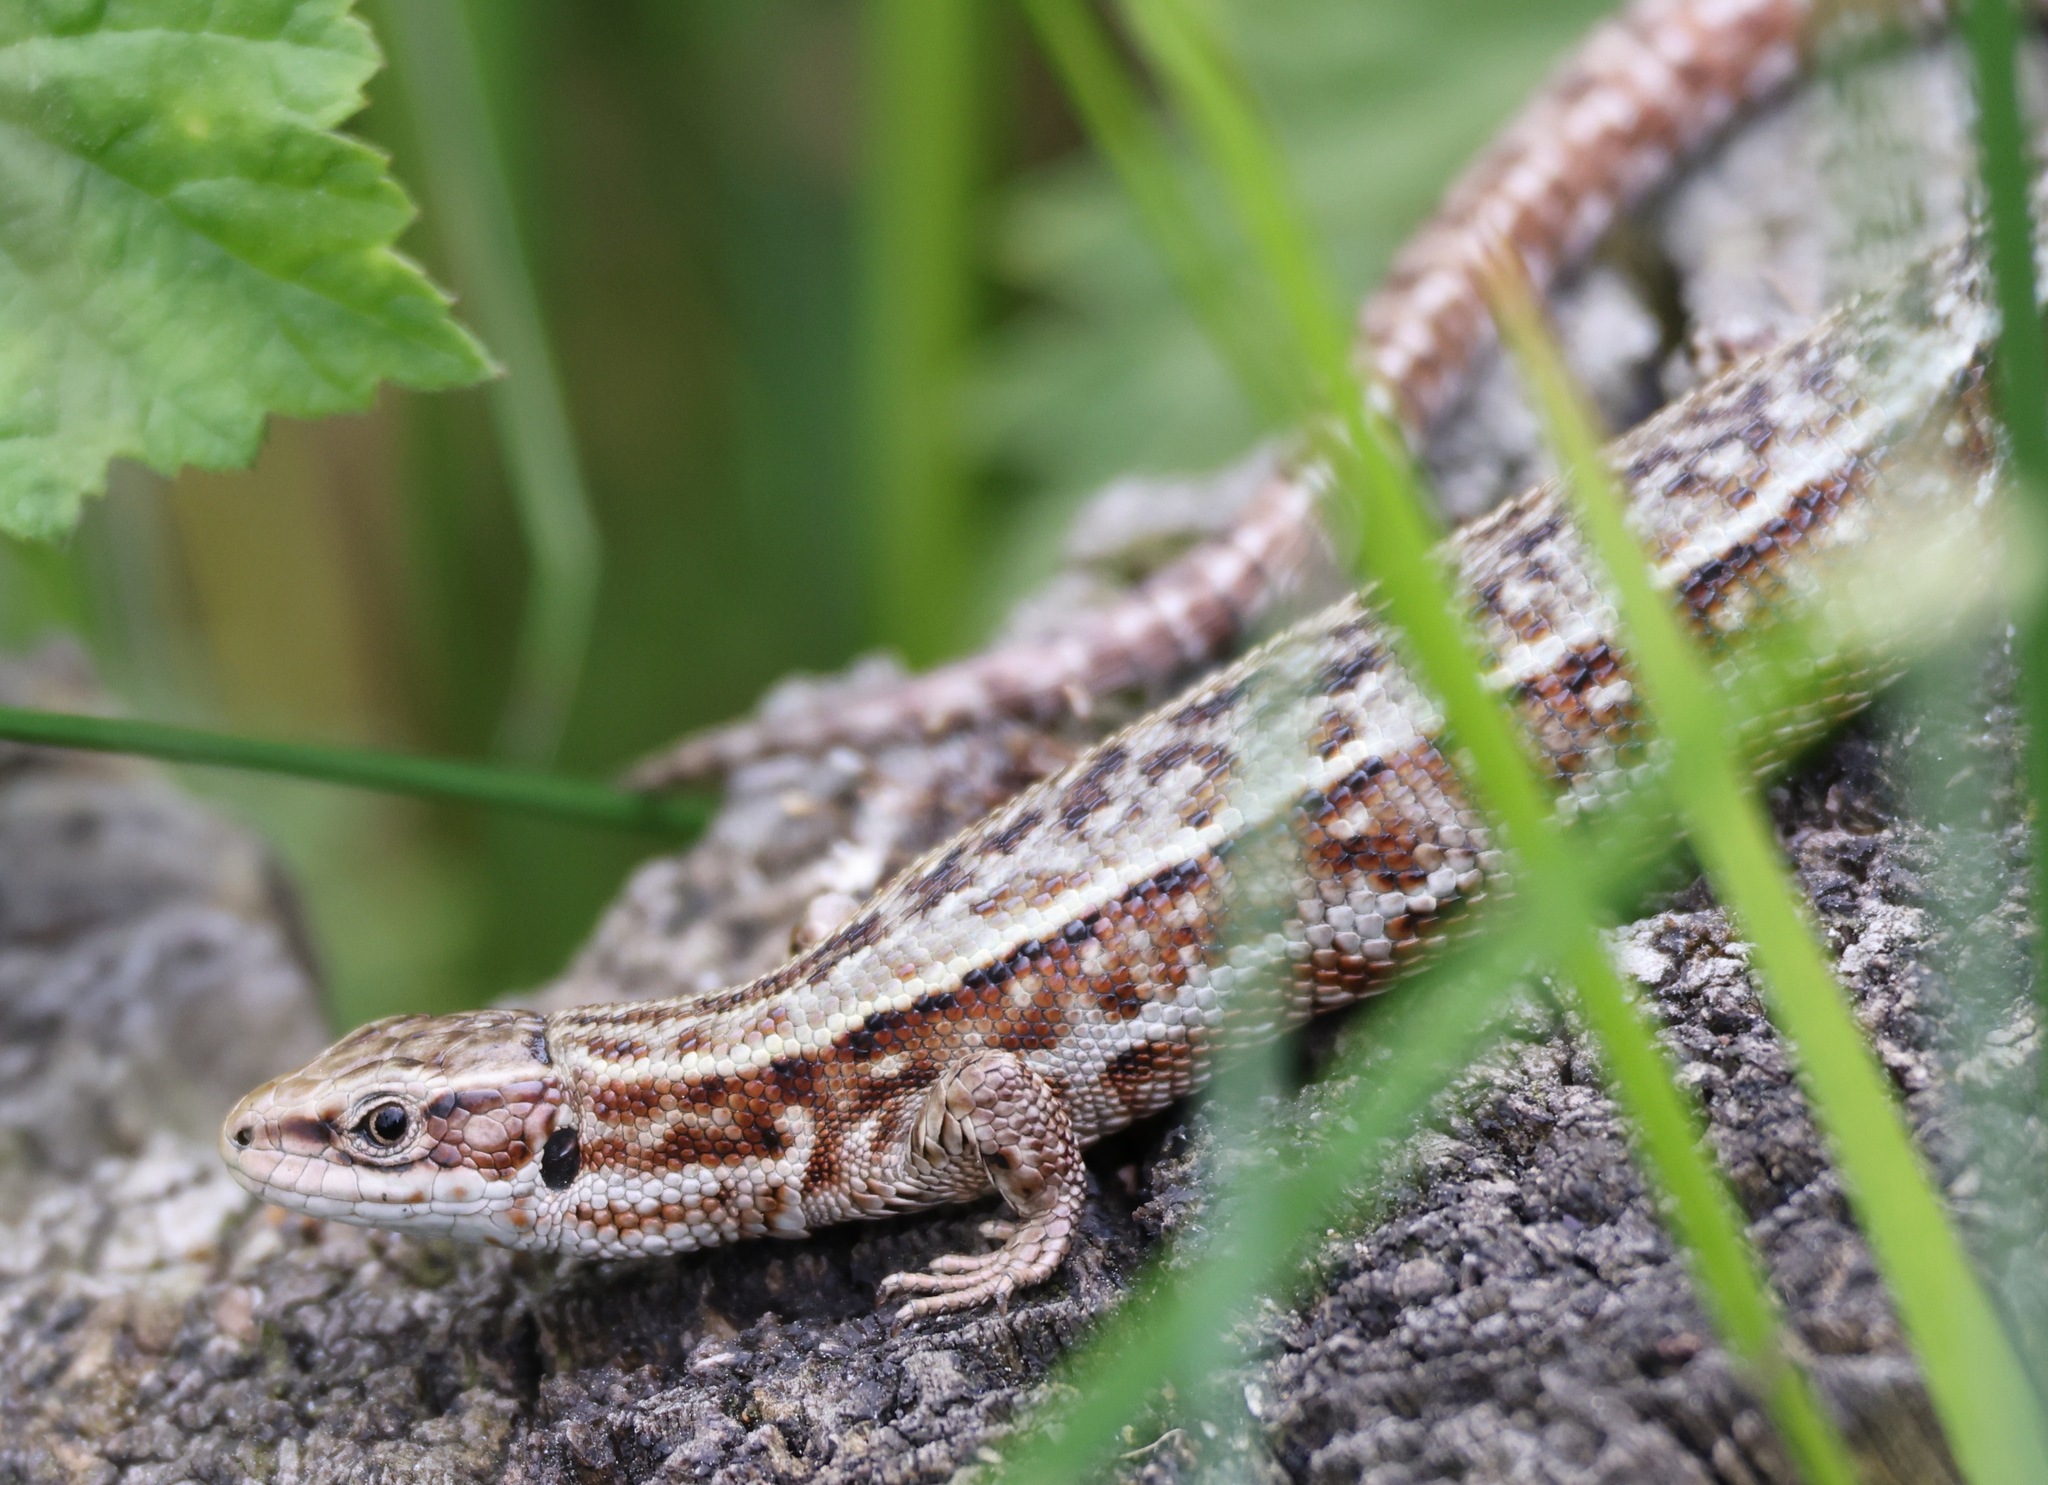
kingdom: Animalia
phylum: Chordata
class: Squamata
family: Lacertidae
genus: Zootoca
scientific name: Zootoca vivipara
